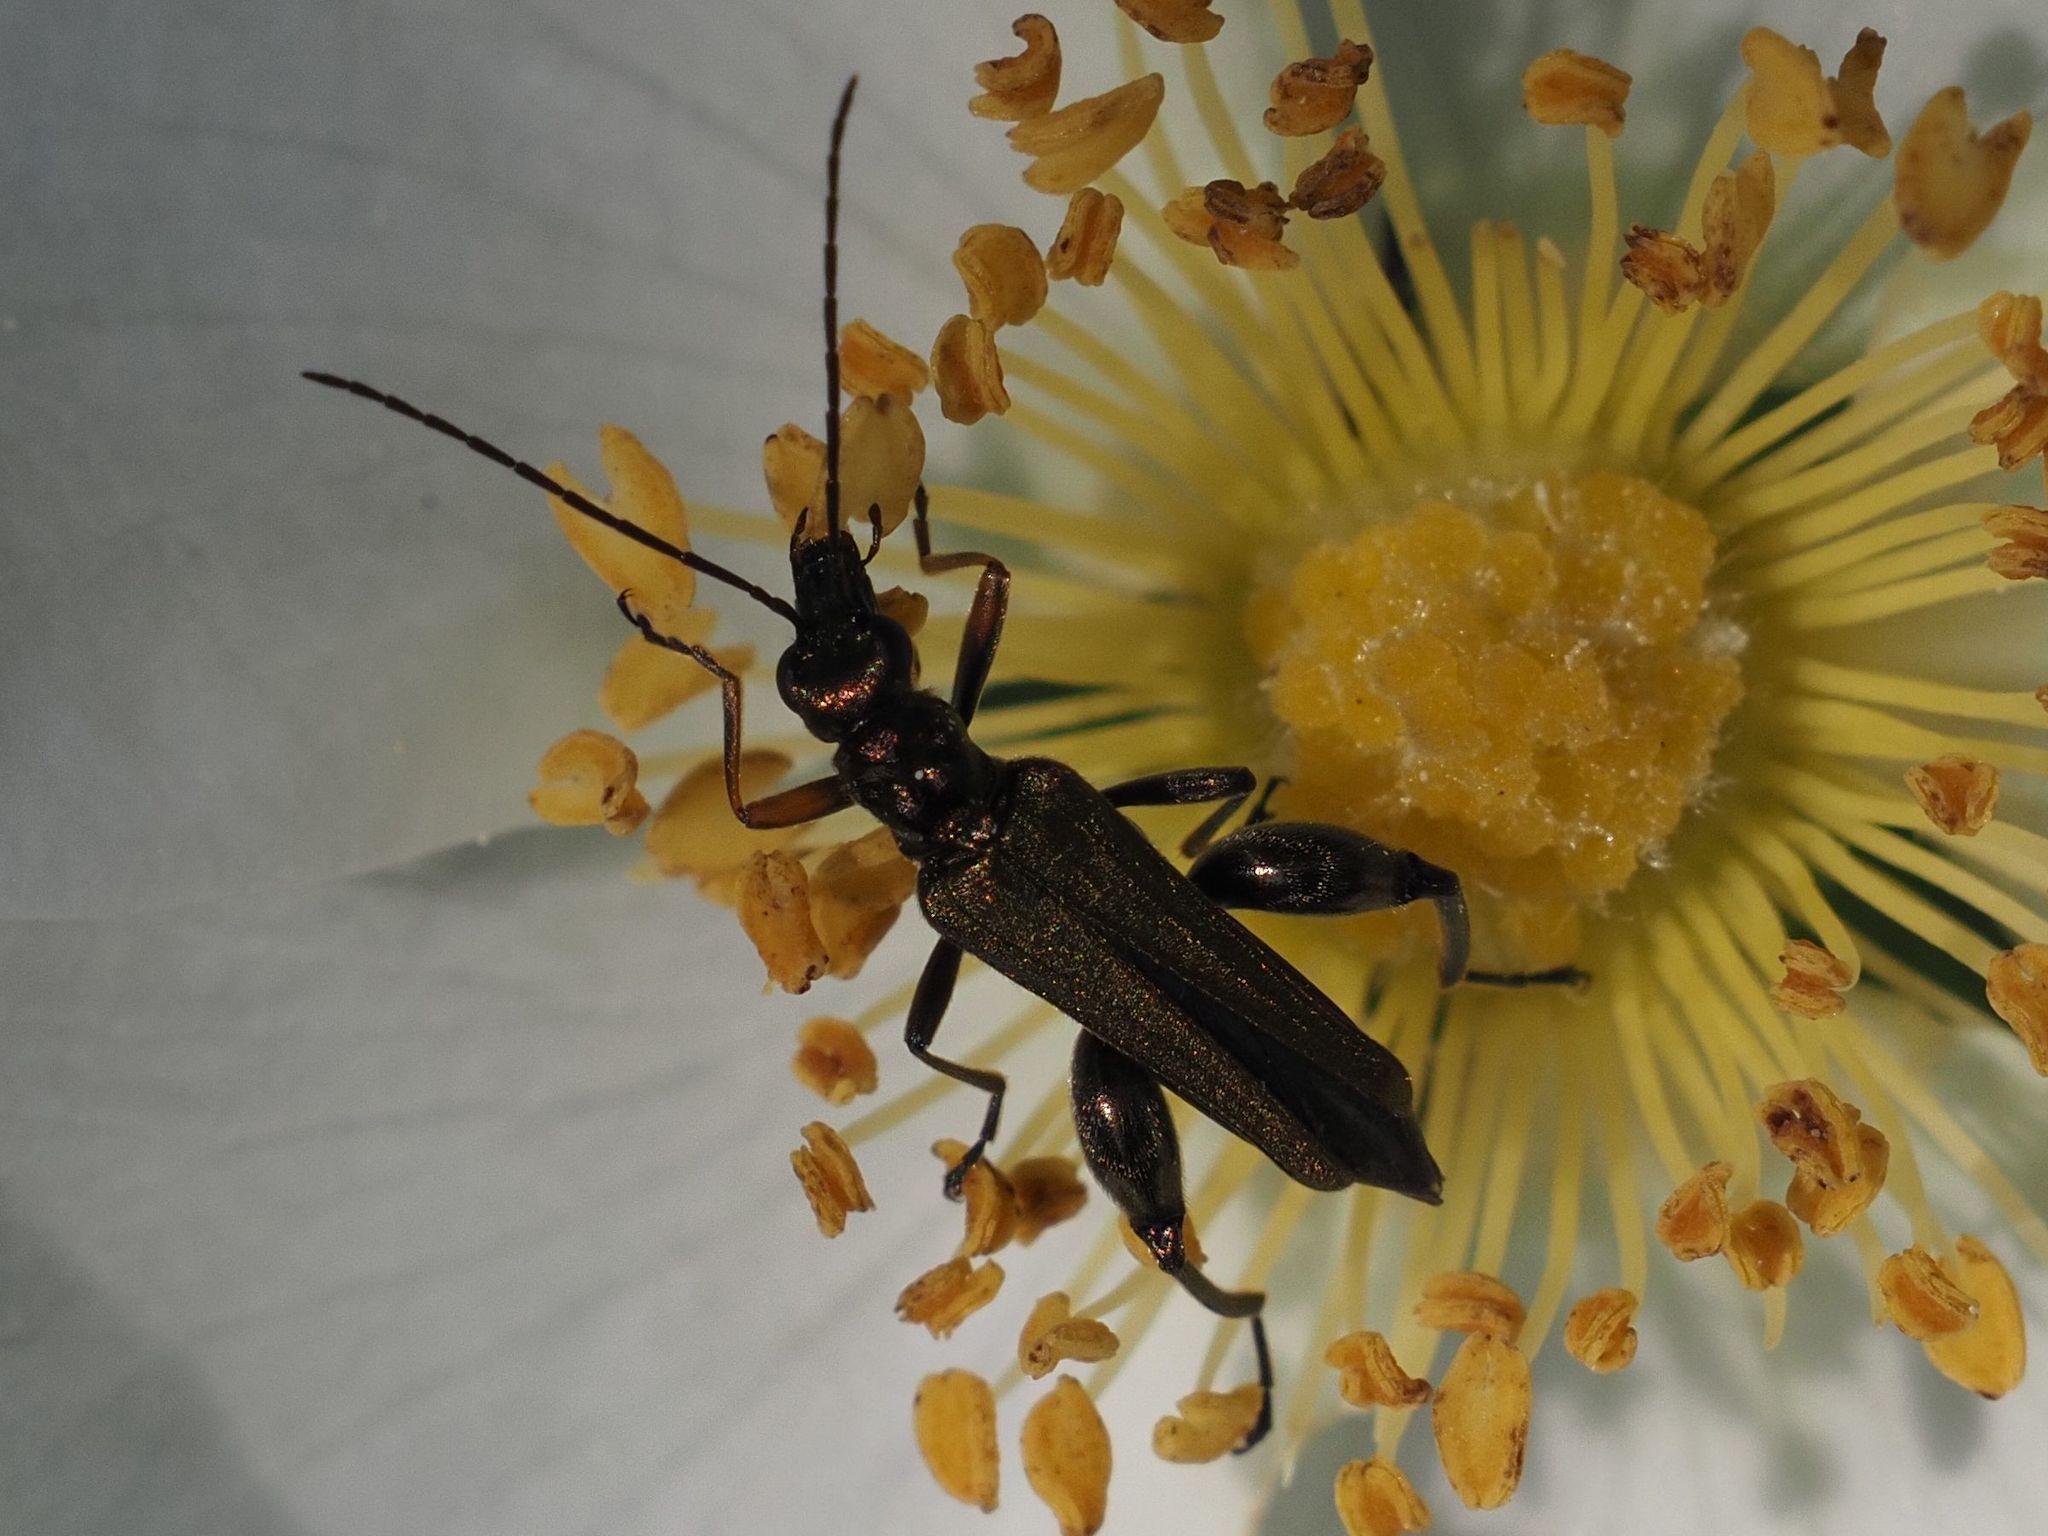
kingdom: Animalia
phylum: Arthropoda
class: Insecta
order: Coleoptera
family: Oedemeridae
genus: Oedemera
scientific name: Oedemera flavipes
